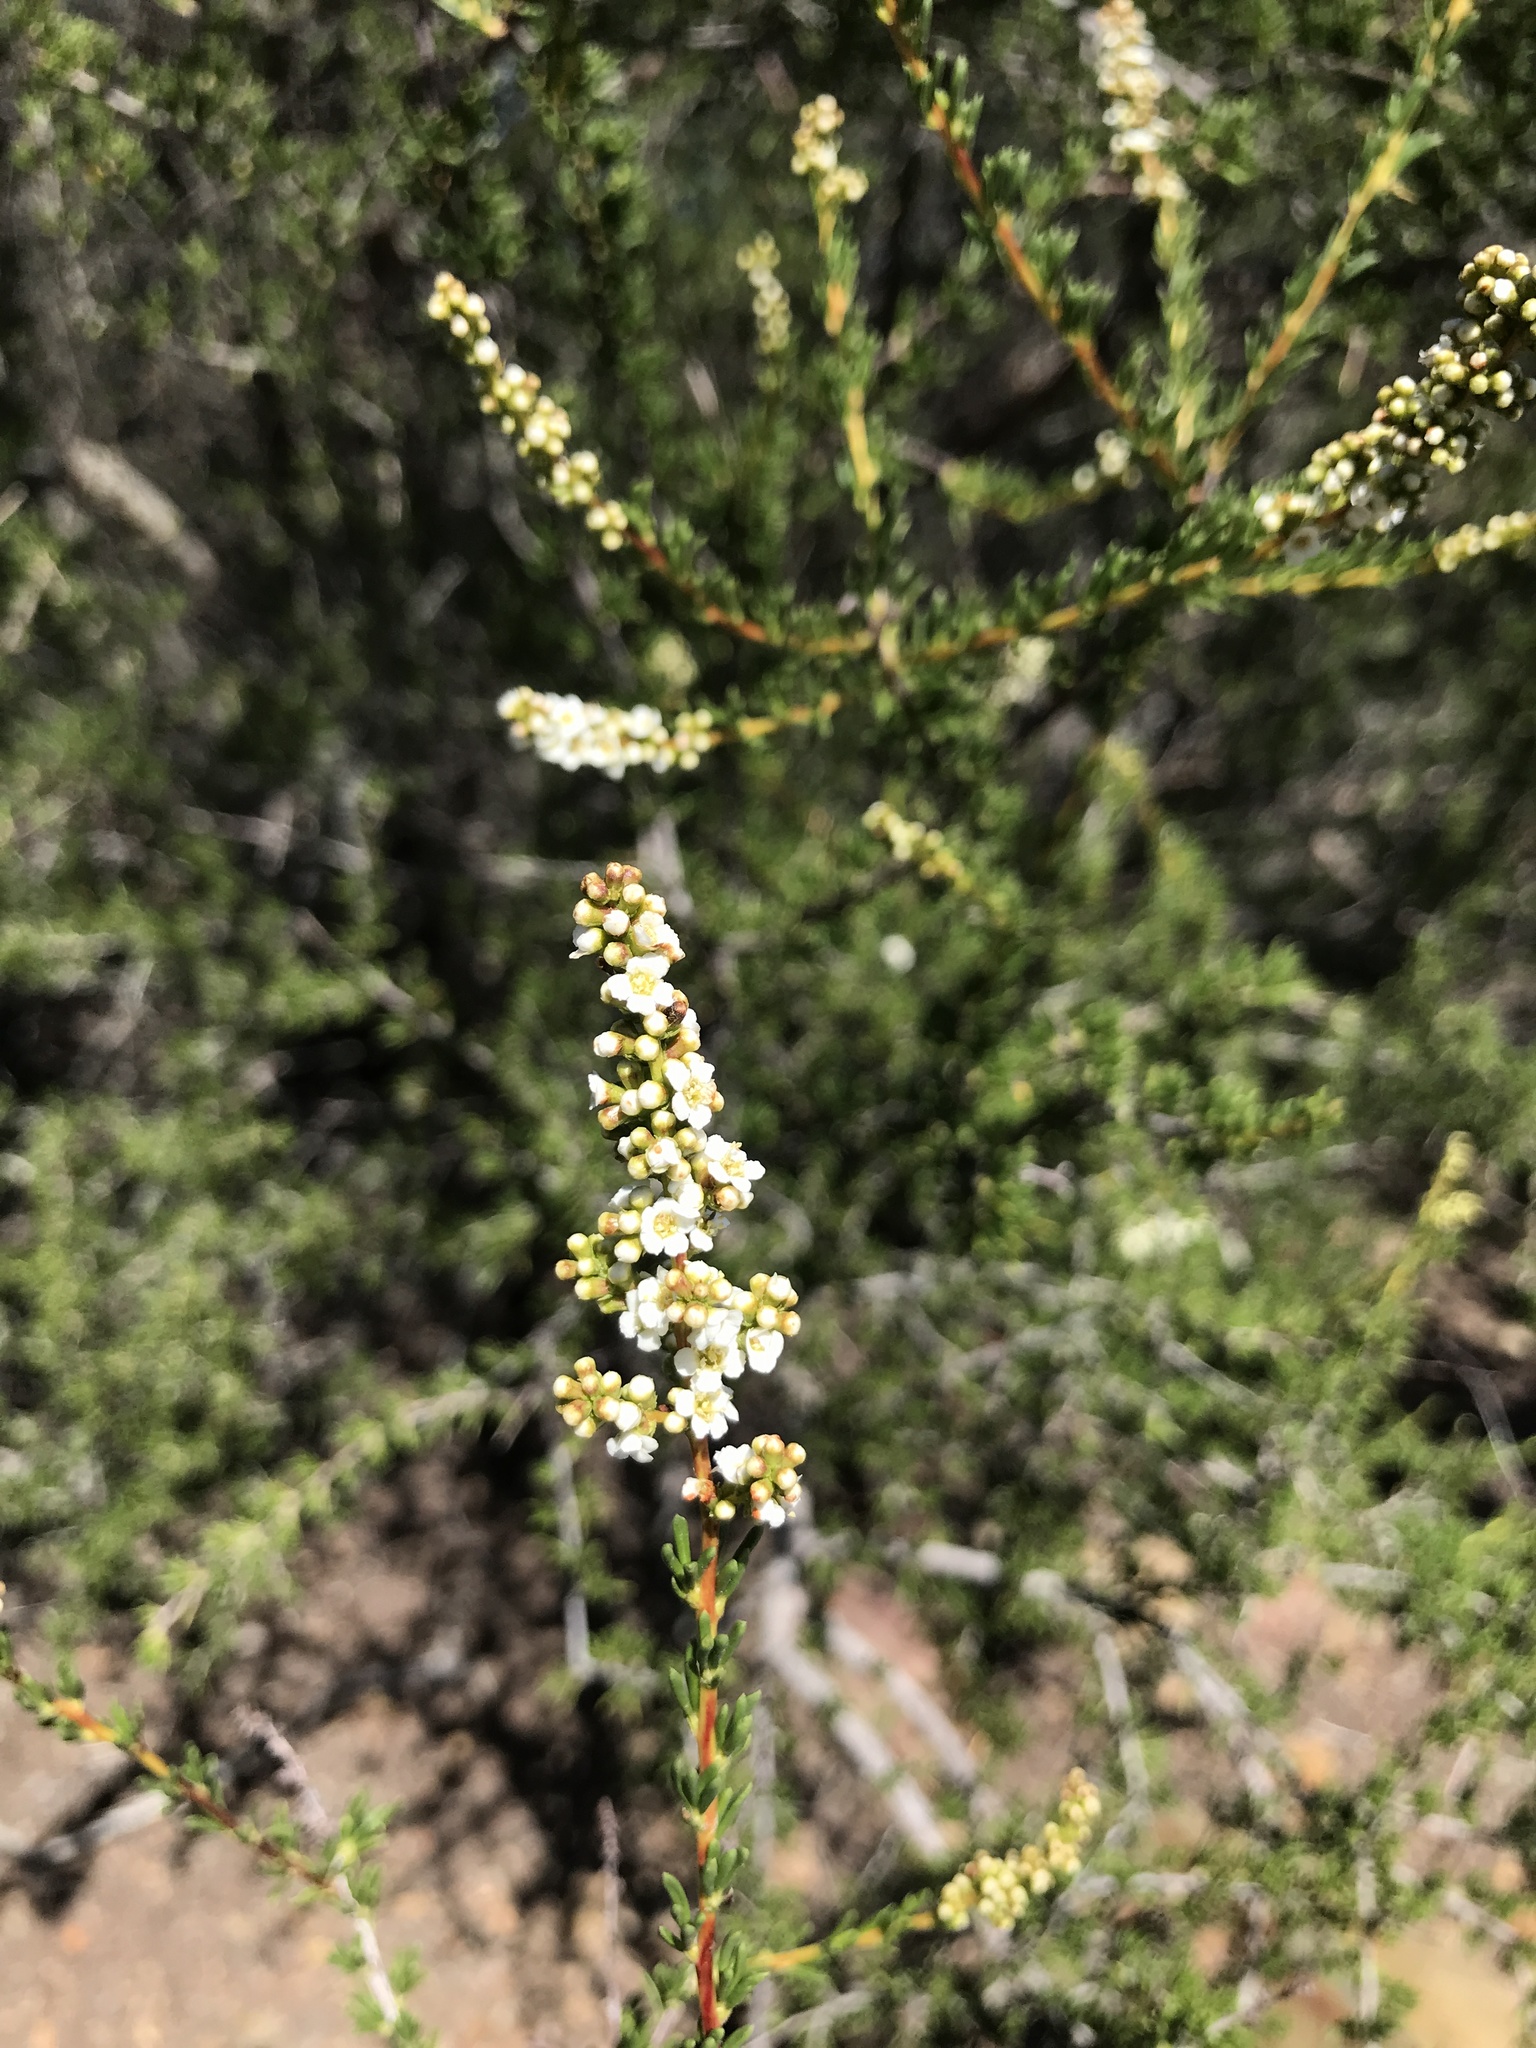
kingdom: Plantae
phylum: Tracheophyta
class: Magnoliopsida
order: Rosales
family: Rosaceae
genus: Adenostoma
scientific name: Adenostoma fasciculatum
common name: Chamise
